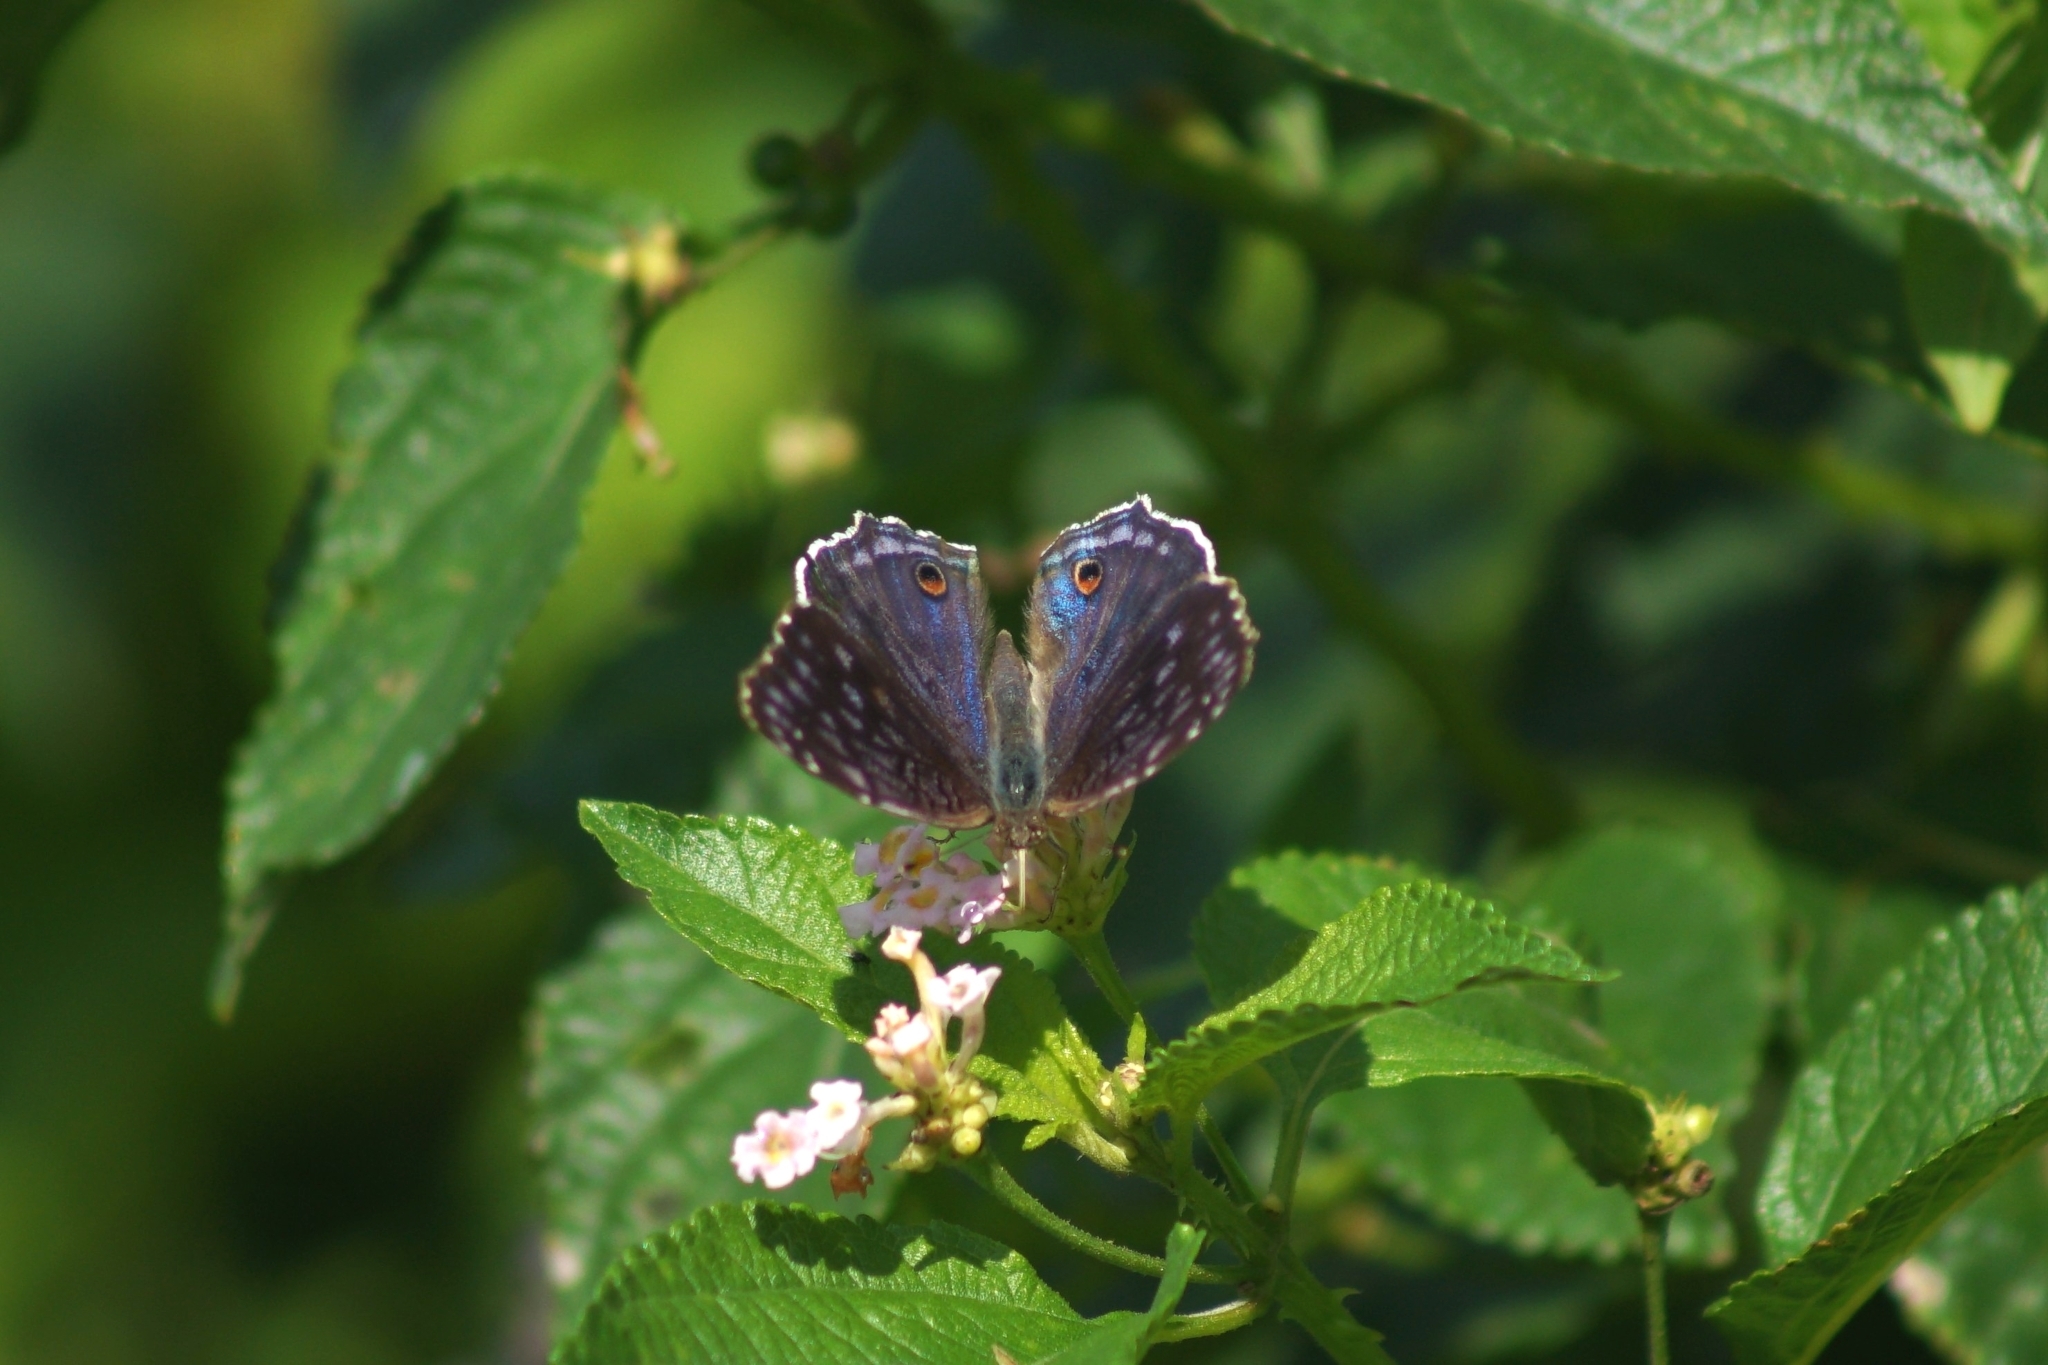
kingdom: Animalia
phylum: Arthropoda
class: Insecta
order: Lepidoptera
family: Nymphalidae
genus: Junonia
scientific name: Junonia rhadama
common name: Royal blue pansy
